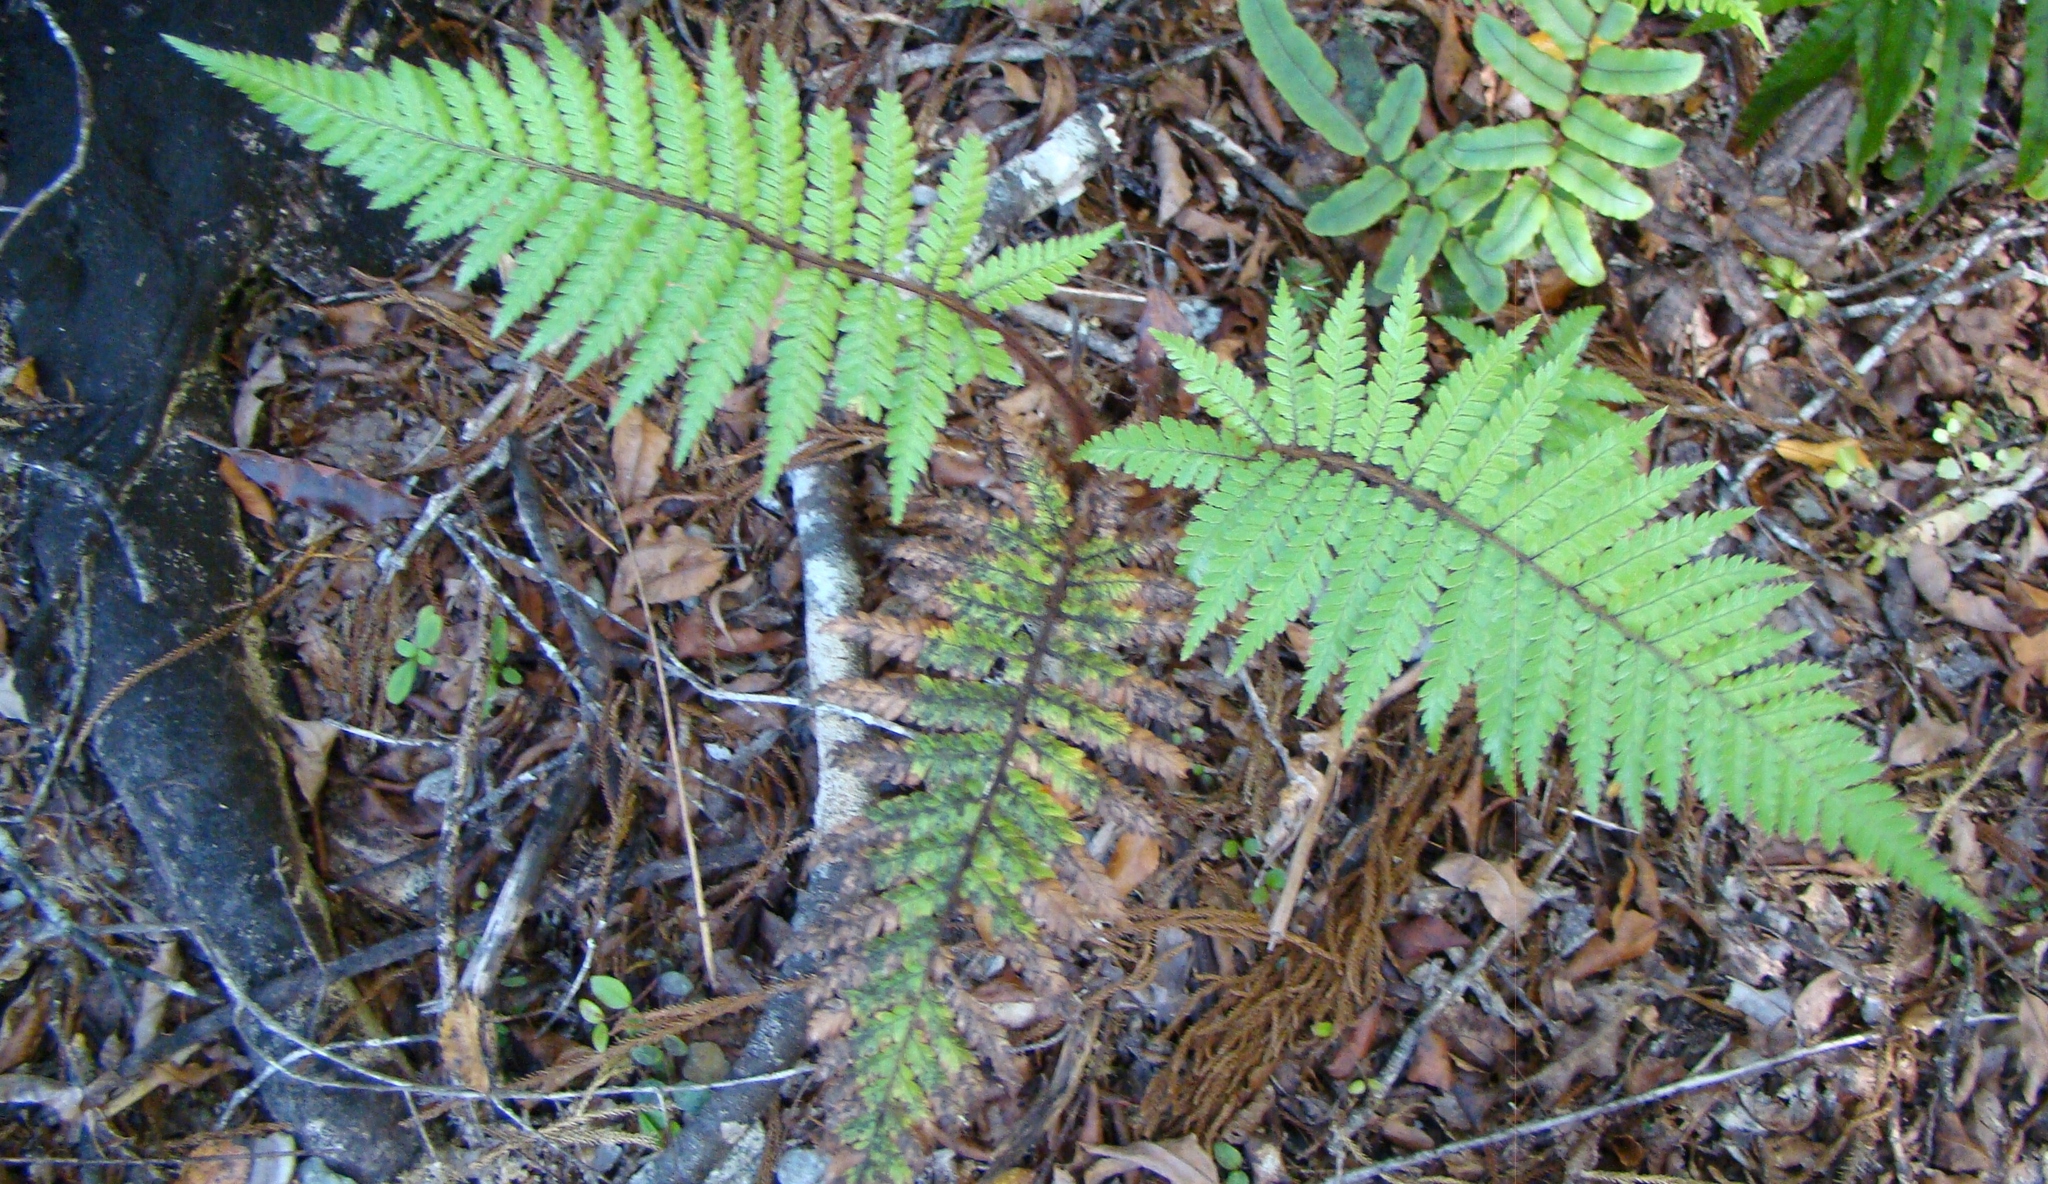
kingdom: Plantae
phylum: Tracheophyta
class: Polypodiopsida
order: Cyatheales
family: Dicksoniaceae
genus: Dicksonia
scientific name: Dicksonia squarrosa
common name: Hard treefern
